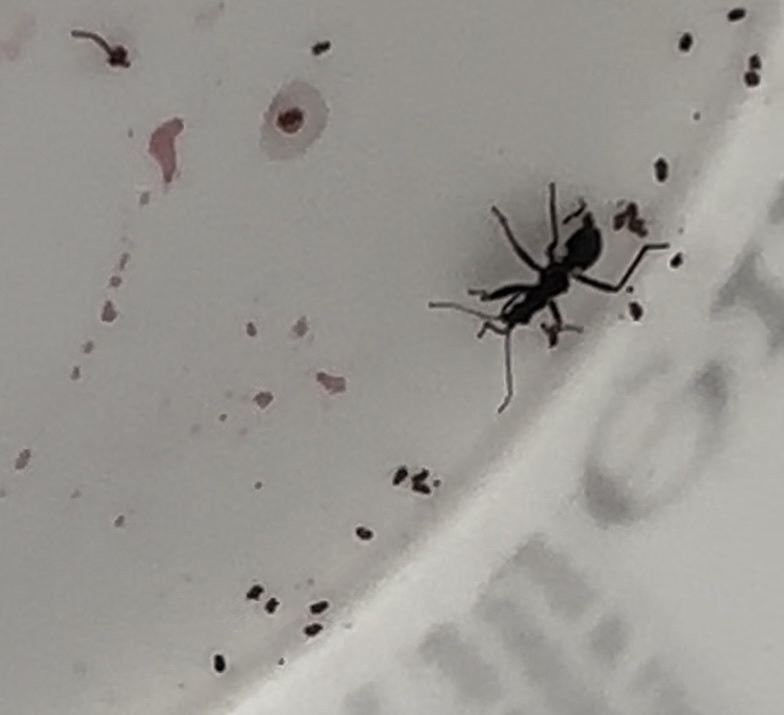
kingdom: Animalia
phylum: Arthropoda
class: Insecta
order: Hemiptera
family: Nabidae
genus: Himacerus
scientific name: Himacerus mirmicoides
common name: Ant damsel bug
